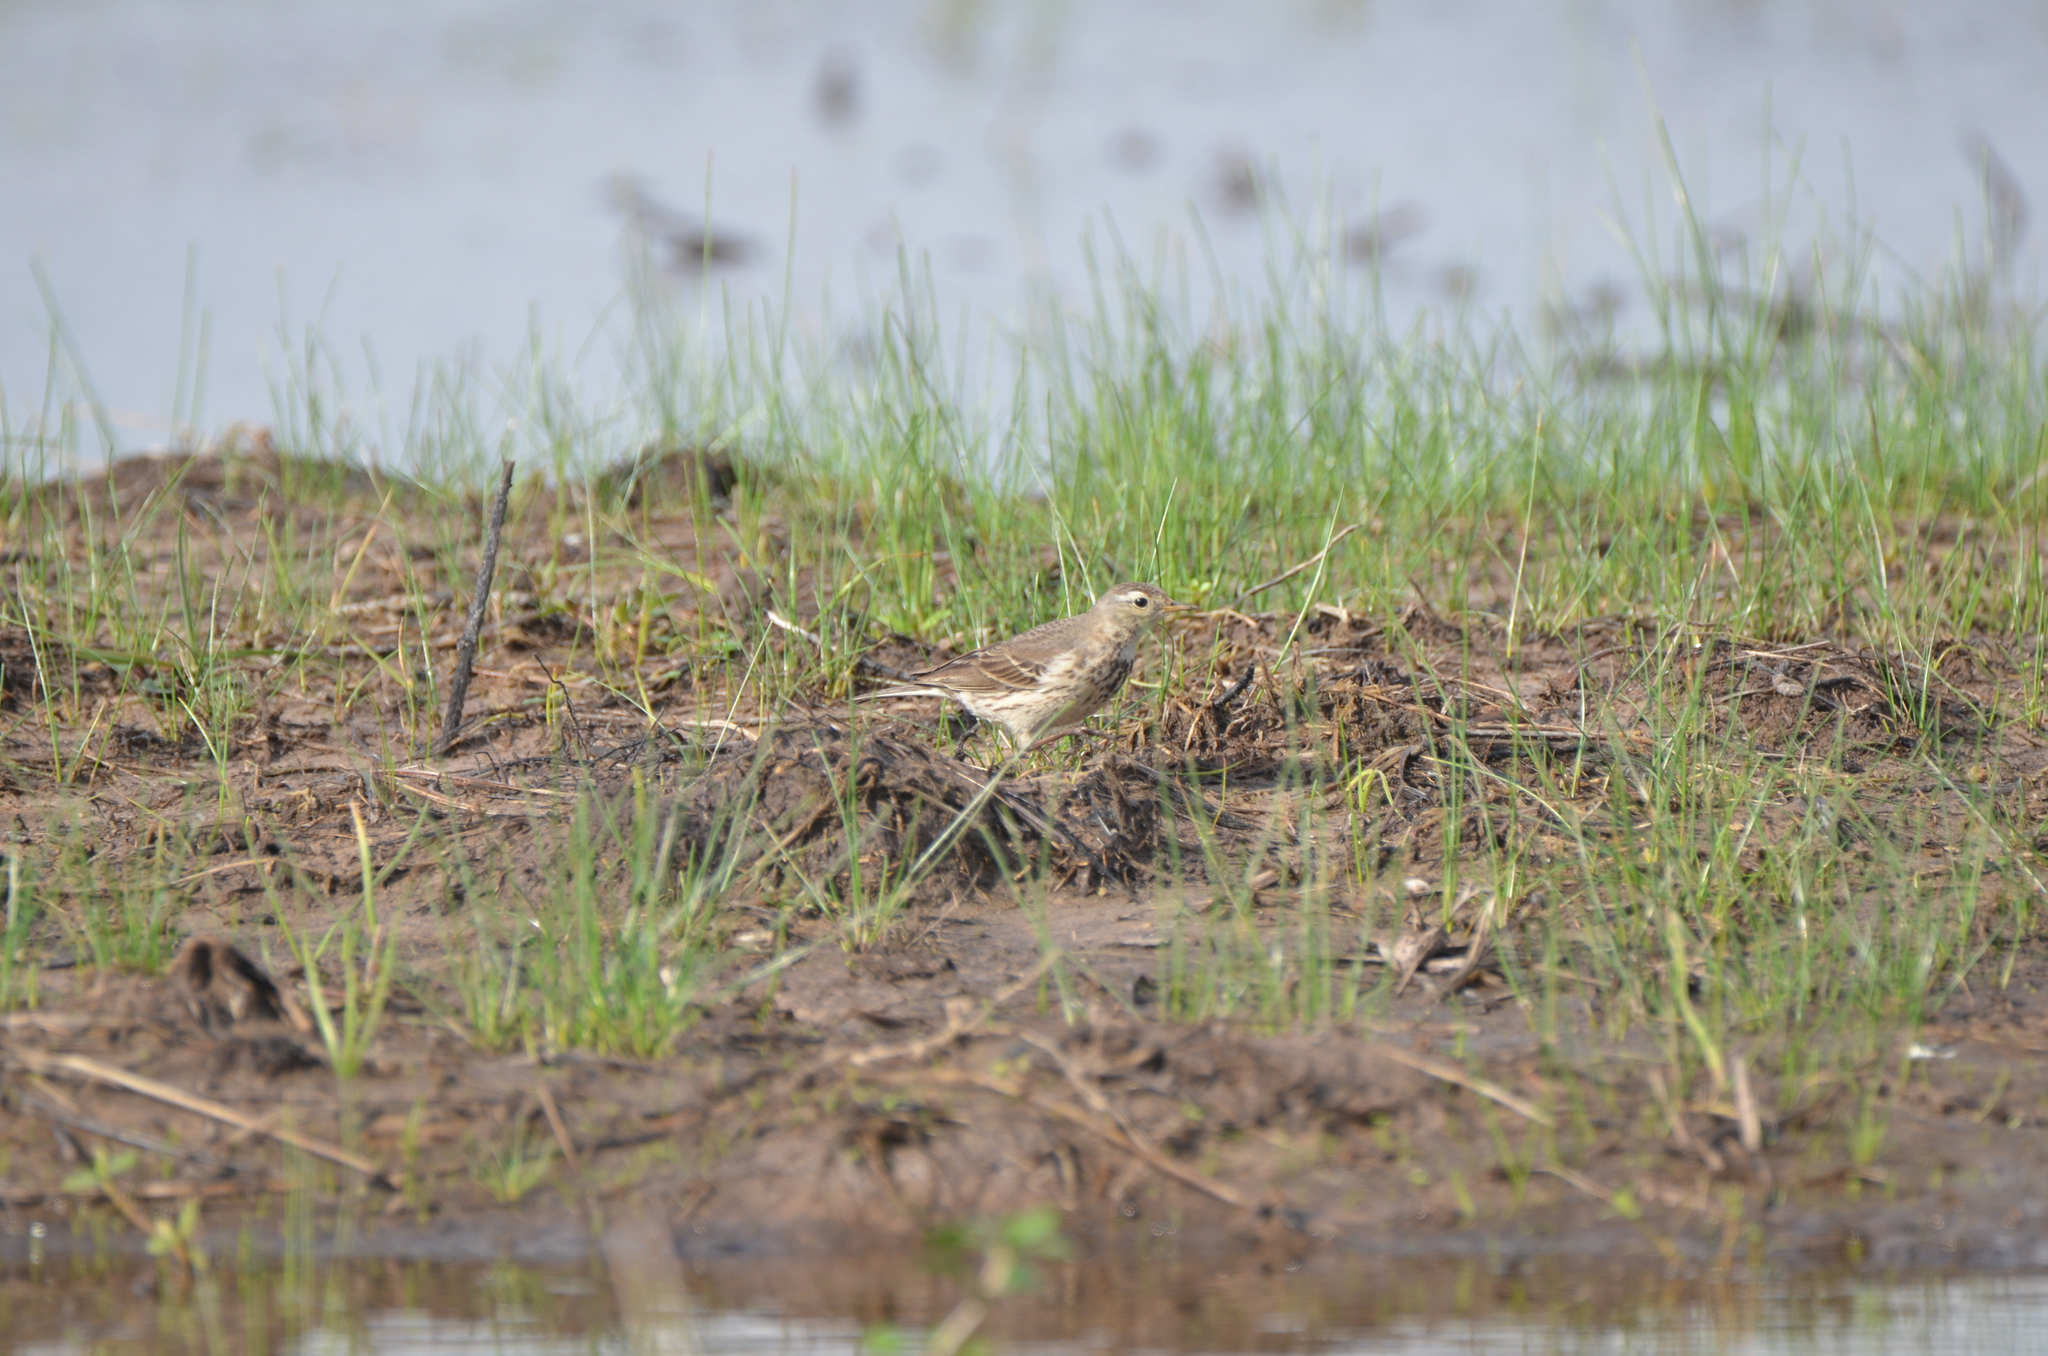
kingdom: Animalia
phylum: Chordata
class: Aves
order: Passeriformes
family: Motacillidae
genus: Anthus
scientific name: Anthus rubescens
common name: Buff-bellied pipit
